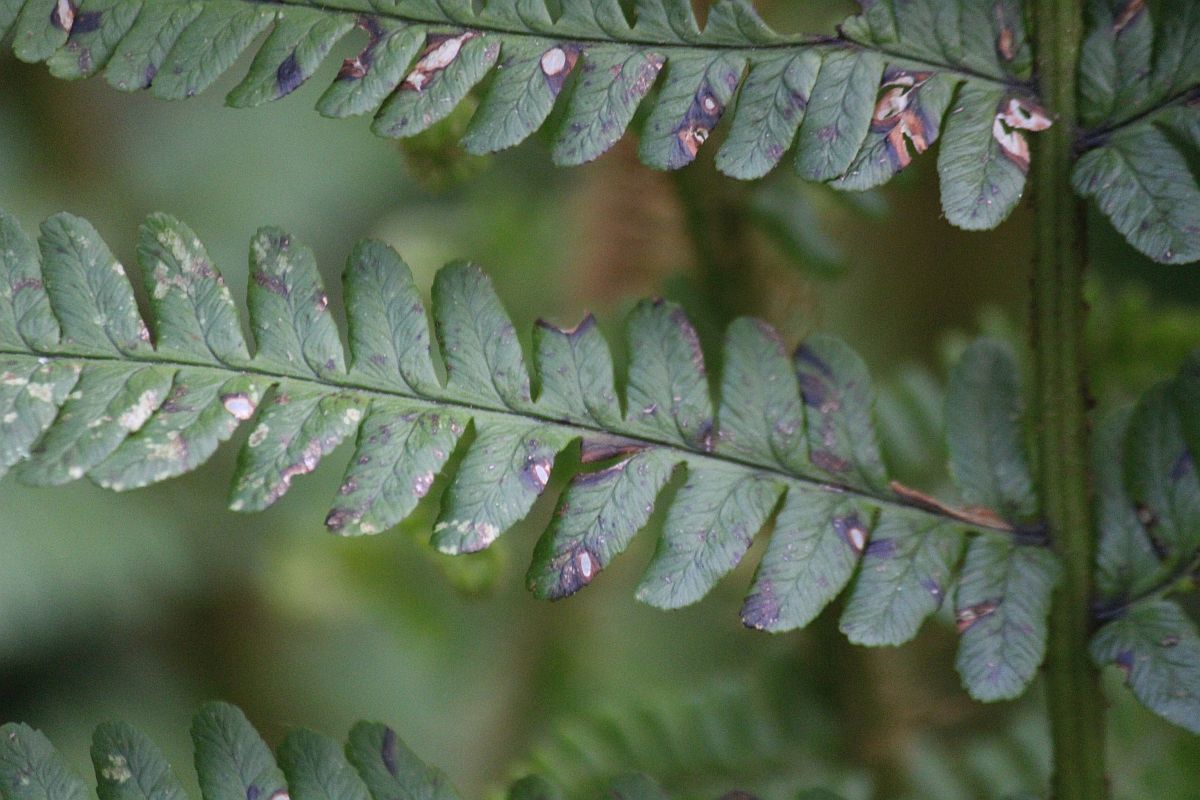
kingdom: Plantae
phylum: Tracheophyta
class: Polypodiopsida
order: Polypodiales
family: Dryopteridaceae
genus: Dryopteris
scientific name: Dryopteris filix-mas
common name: Male fern
